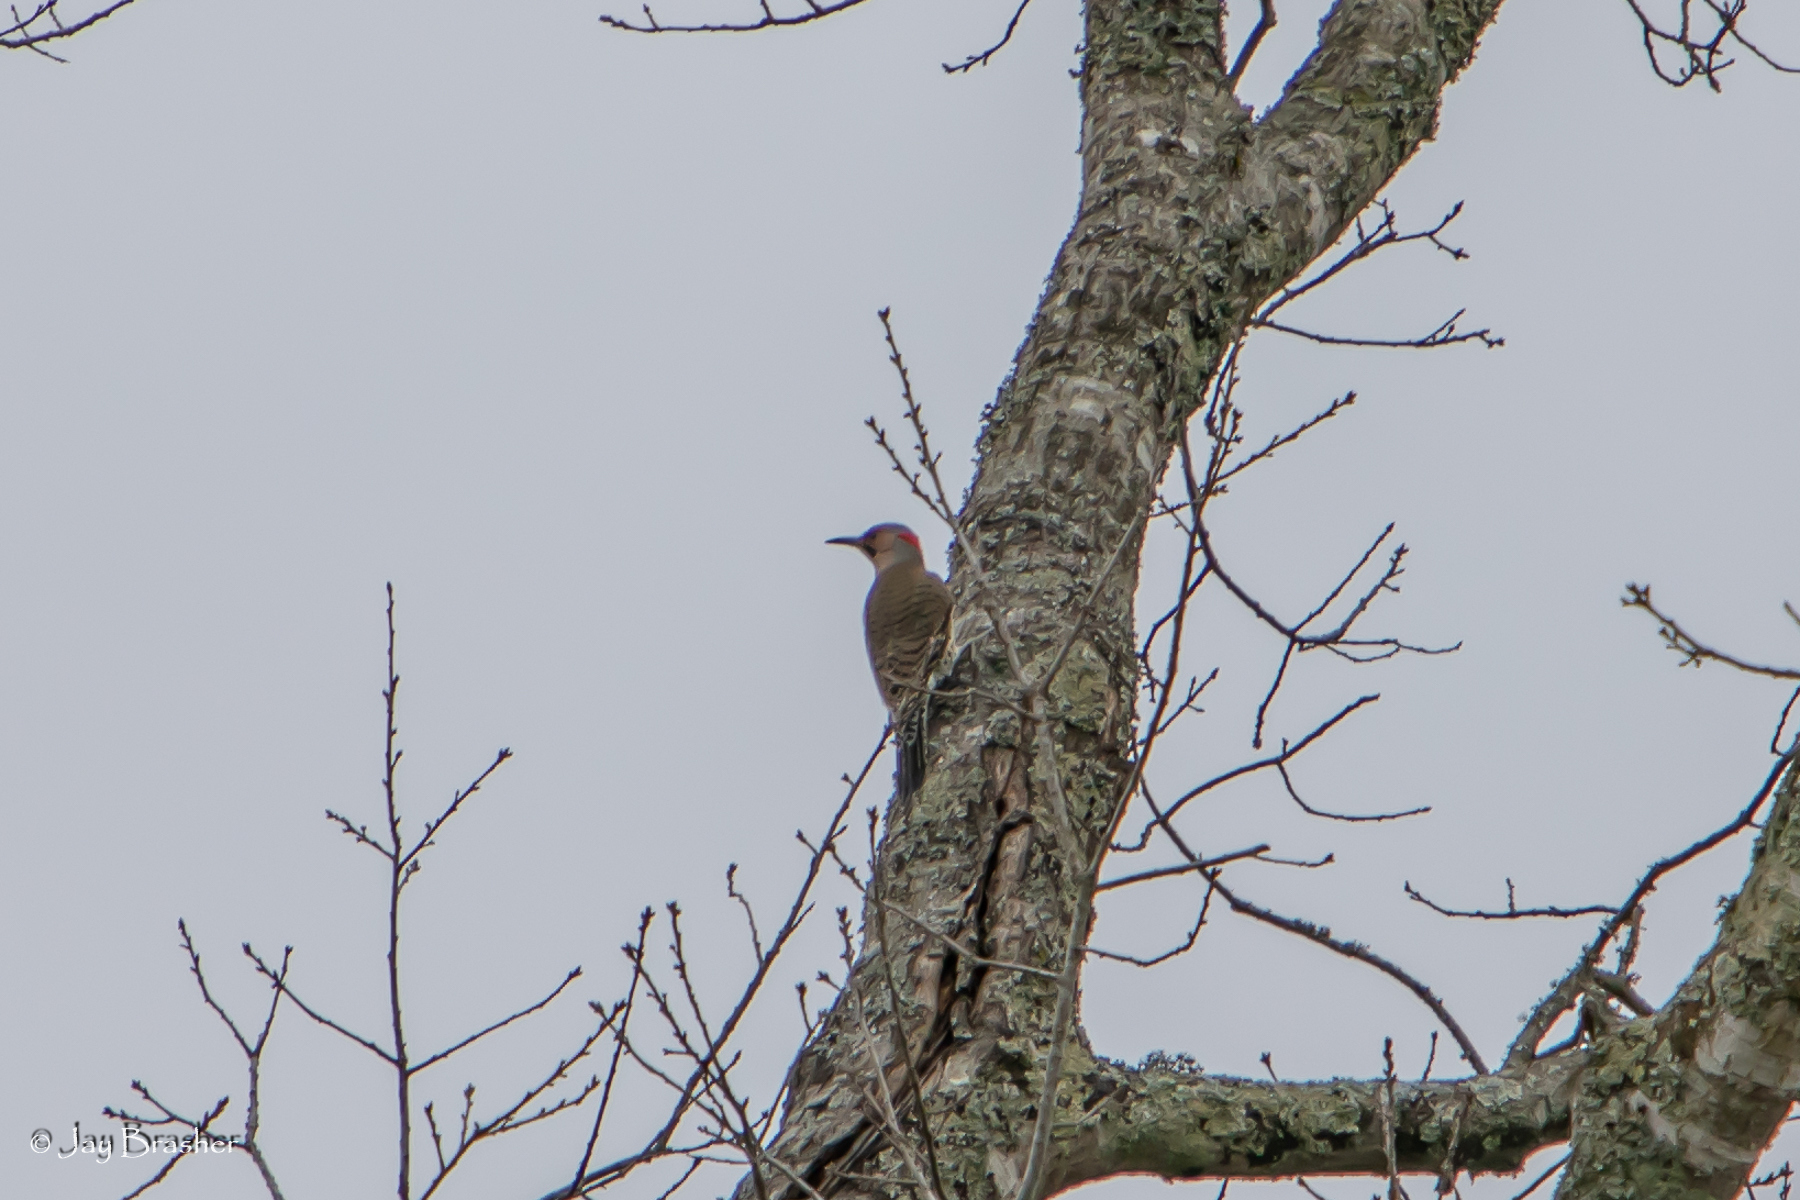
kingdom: Animalia
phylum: Chordata
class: Aves
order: Piciformes
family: Picidae
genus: Colaptes
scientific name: Colaptes auratus
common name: Northern flicker
